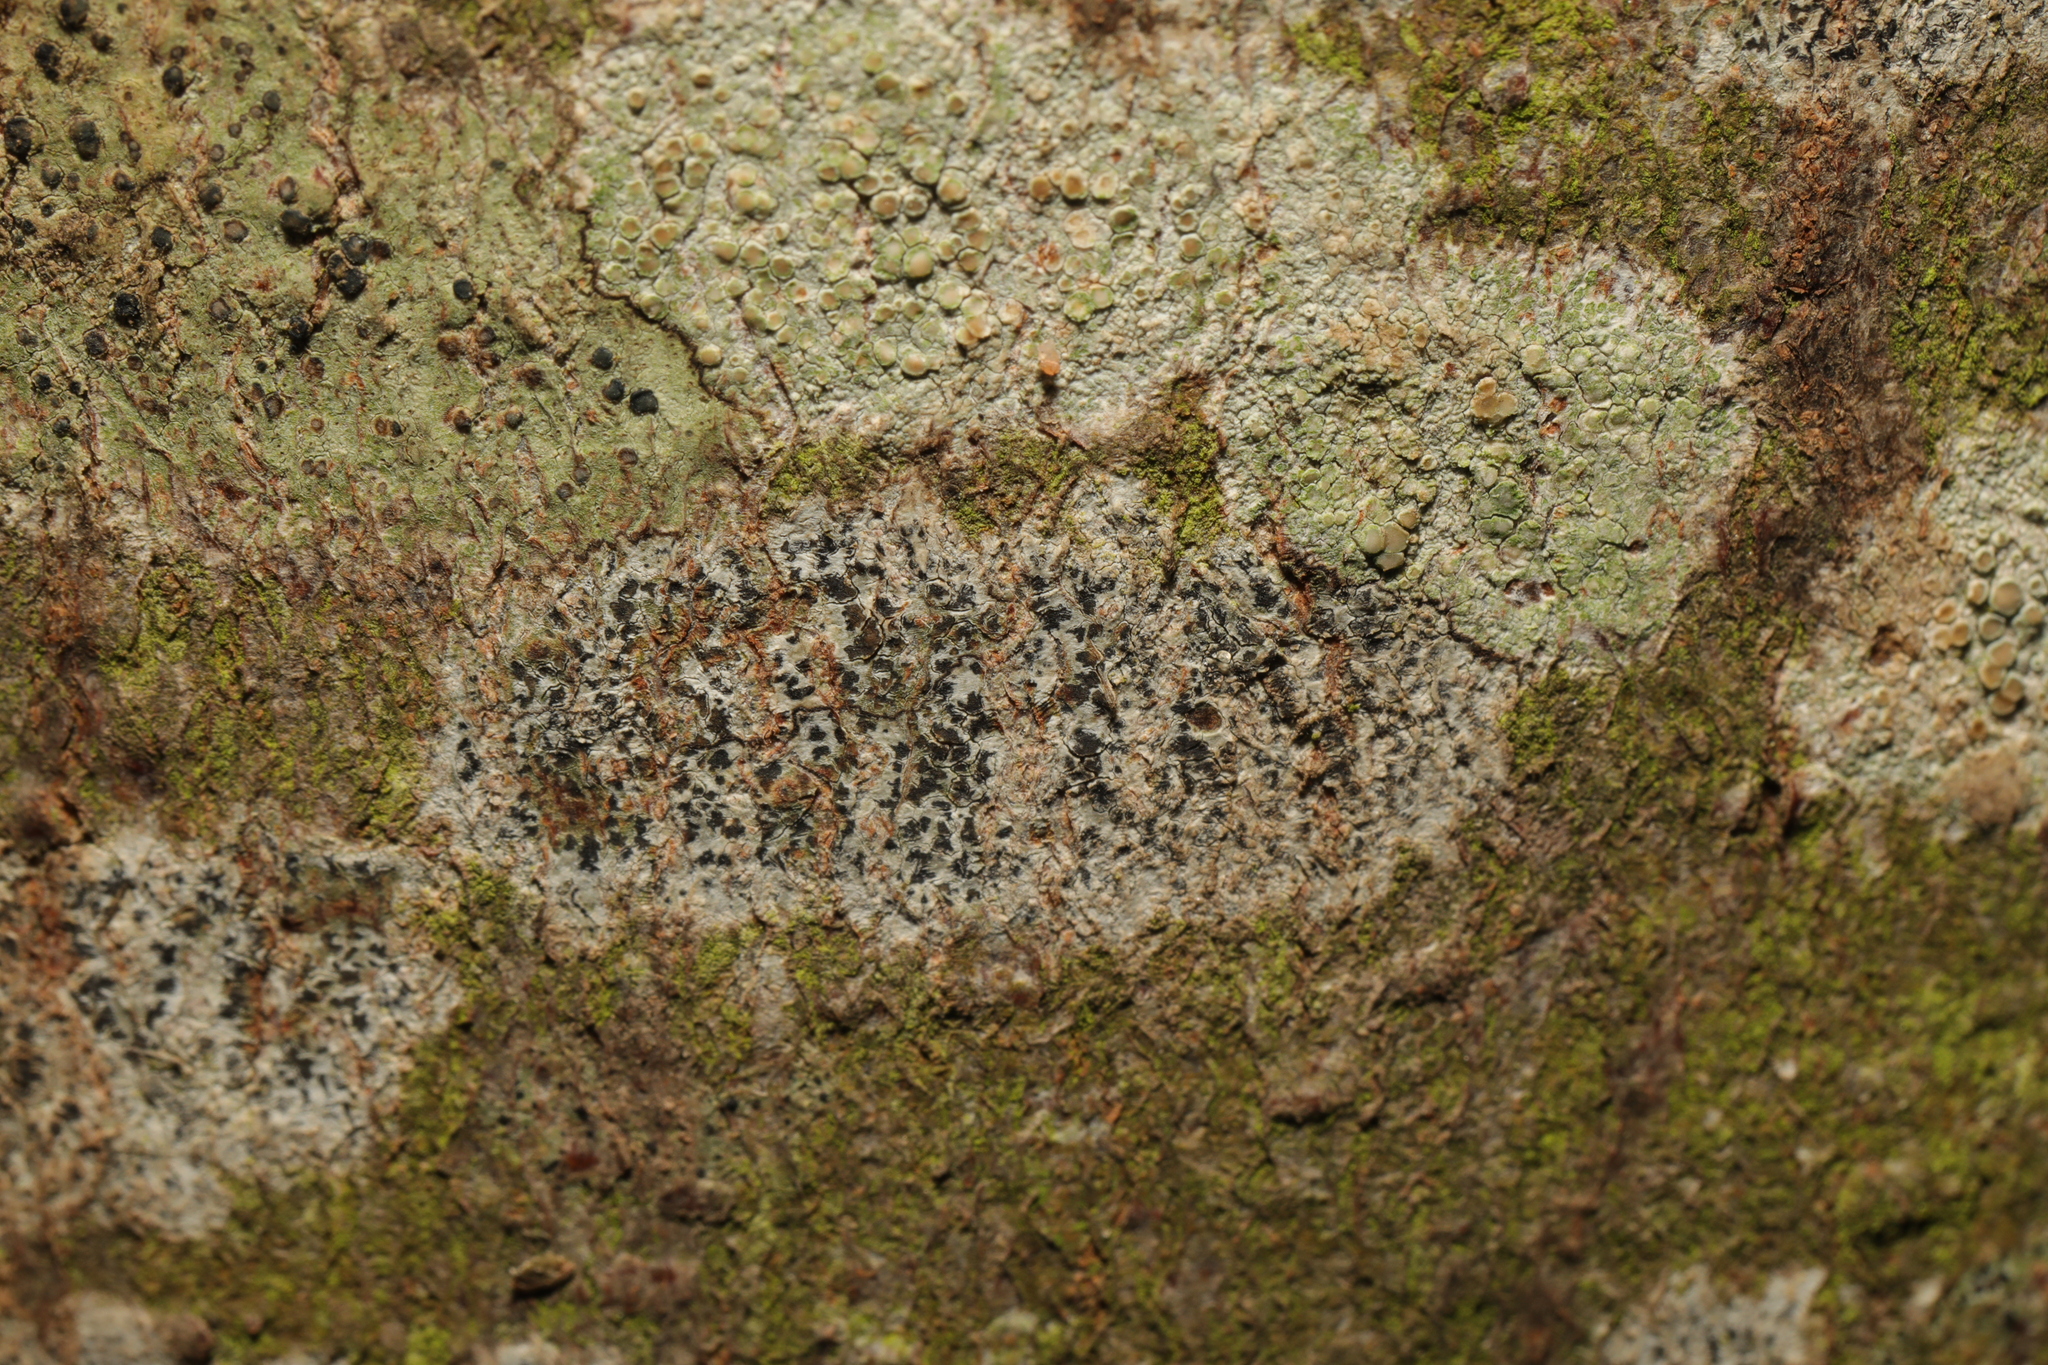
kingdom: Fungi
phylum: Ascomycota
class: Arthoniomycetes
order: Arthoniales
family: Arthoniaceae
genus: Arthonia
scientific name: Arthonia radiata
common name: Asterisk lichen
